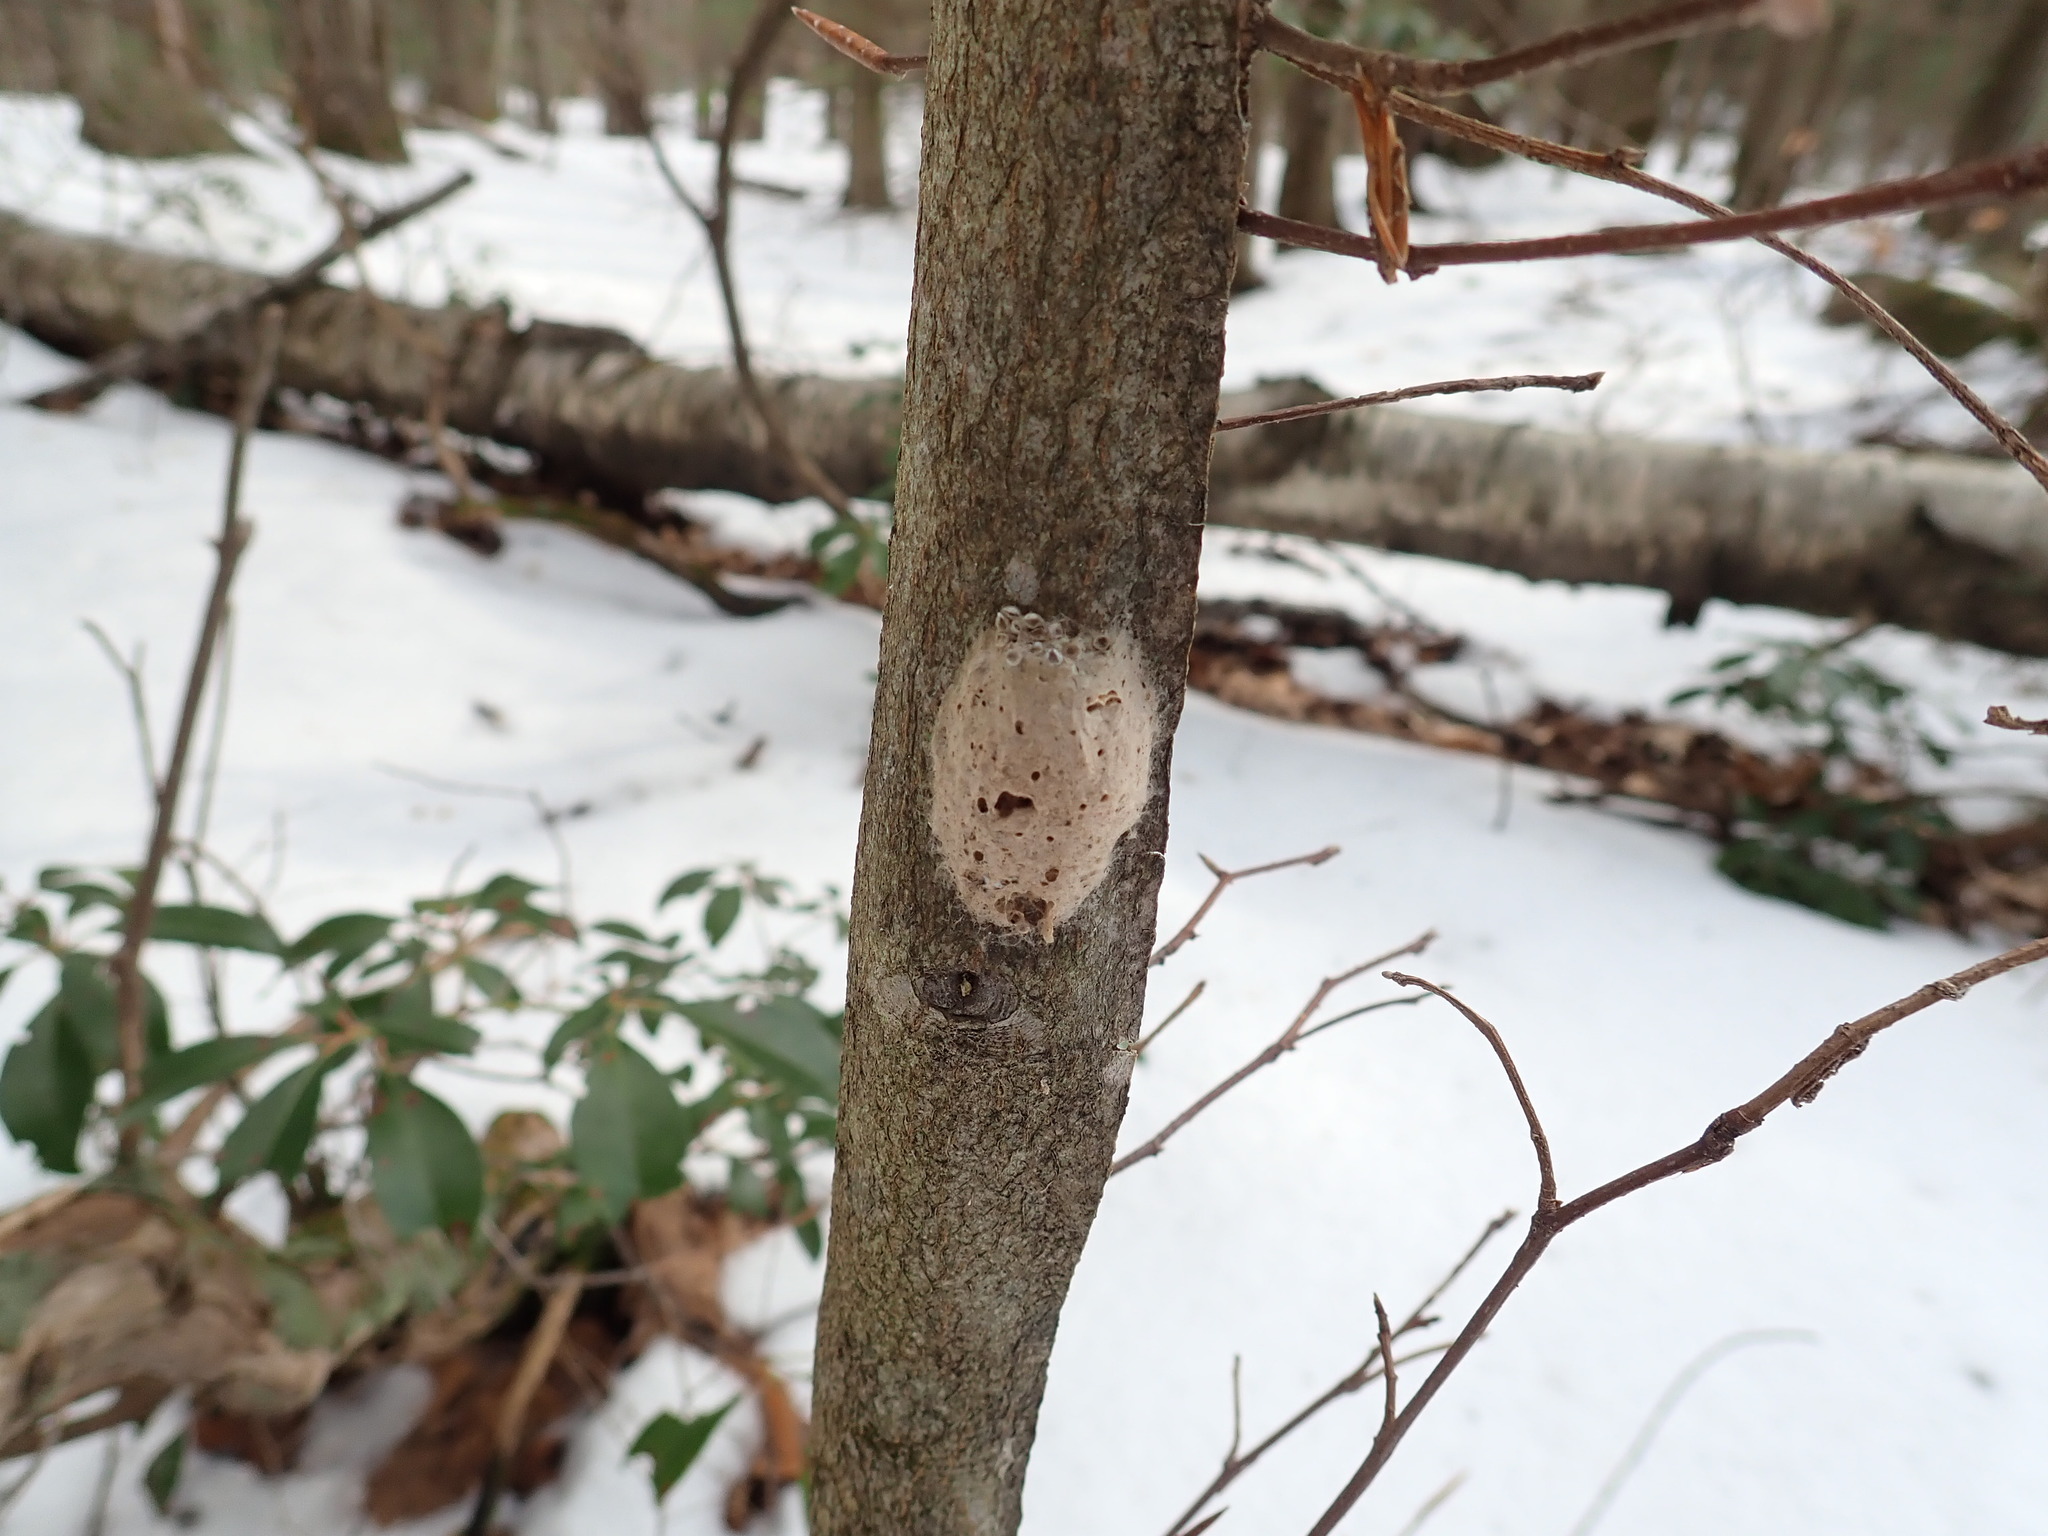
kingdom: Animalia
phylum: Arthropoda
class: Insecta
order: Lepidoptera
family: Erebidae
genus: Lymantria
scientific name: Lymantria dispar
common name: Gypsy moth
